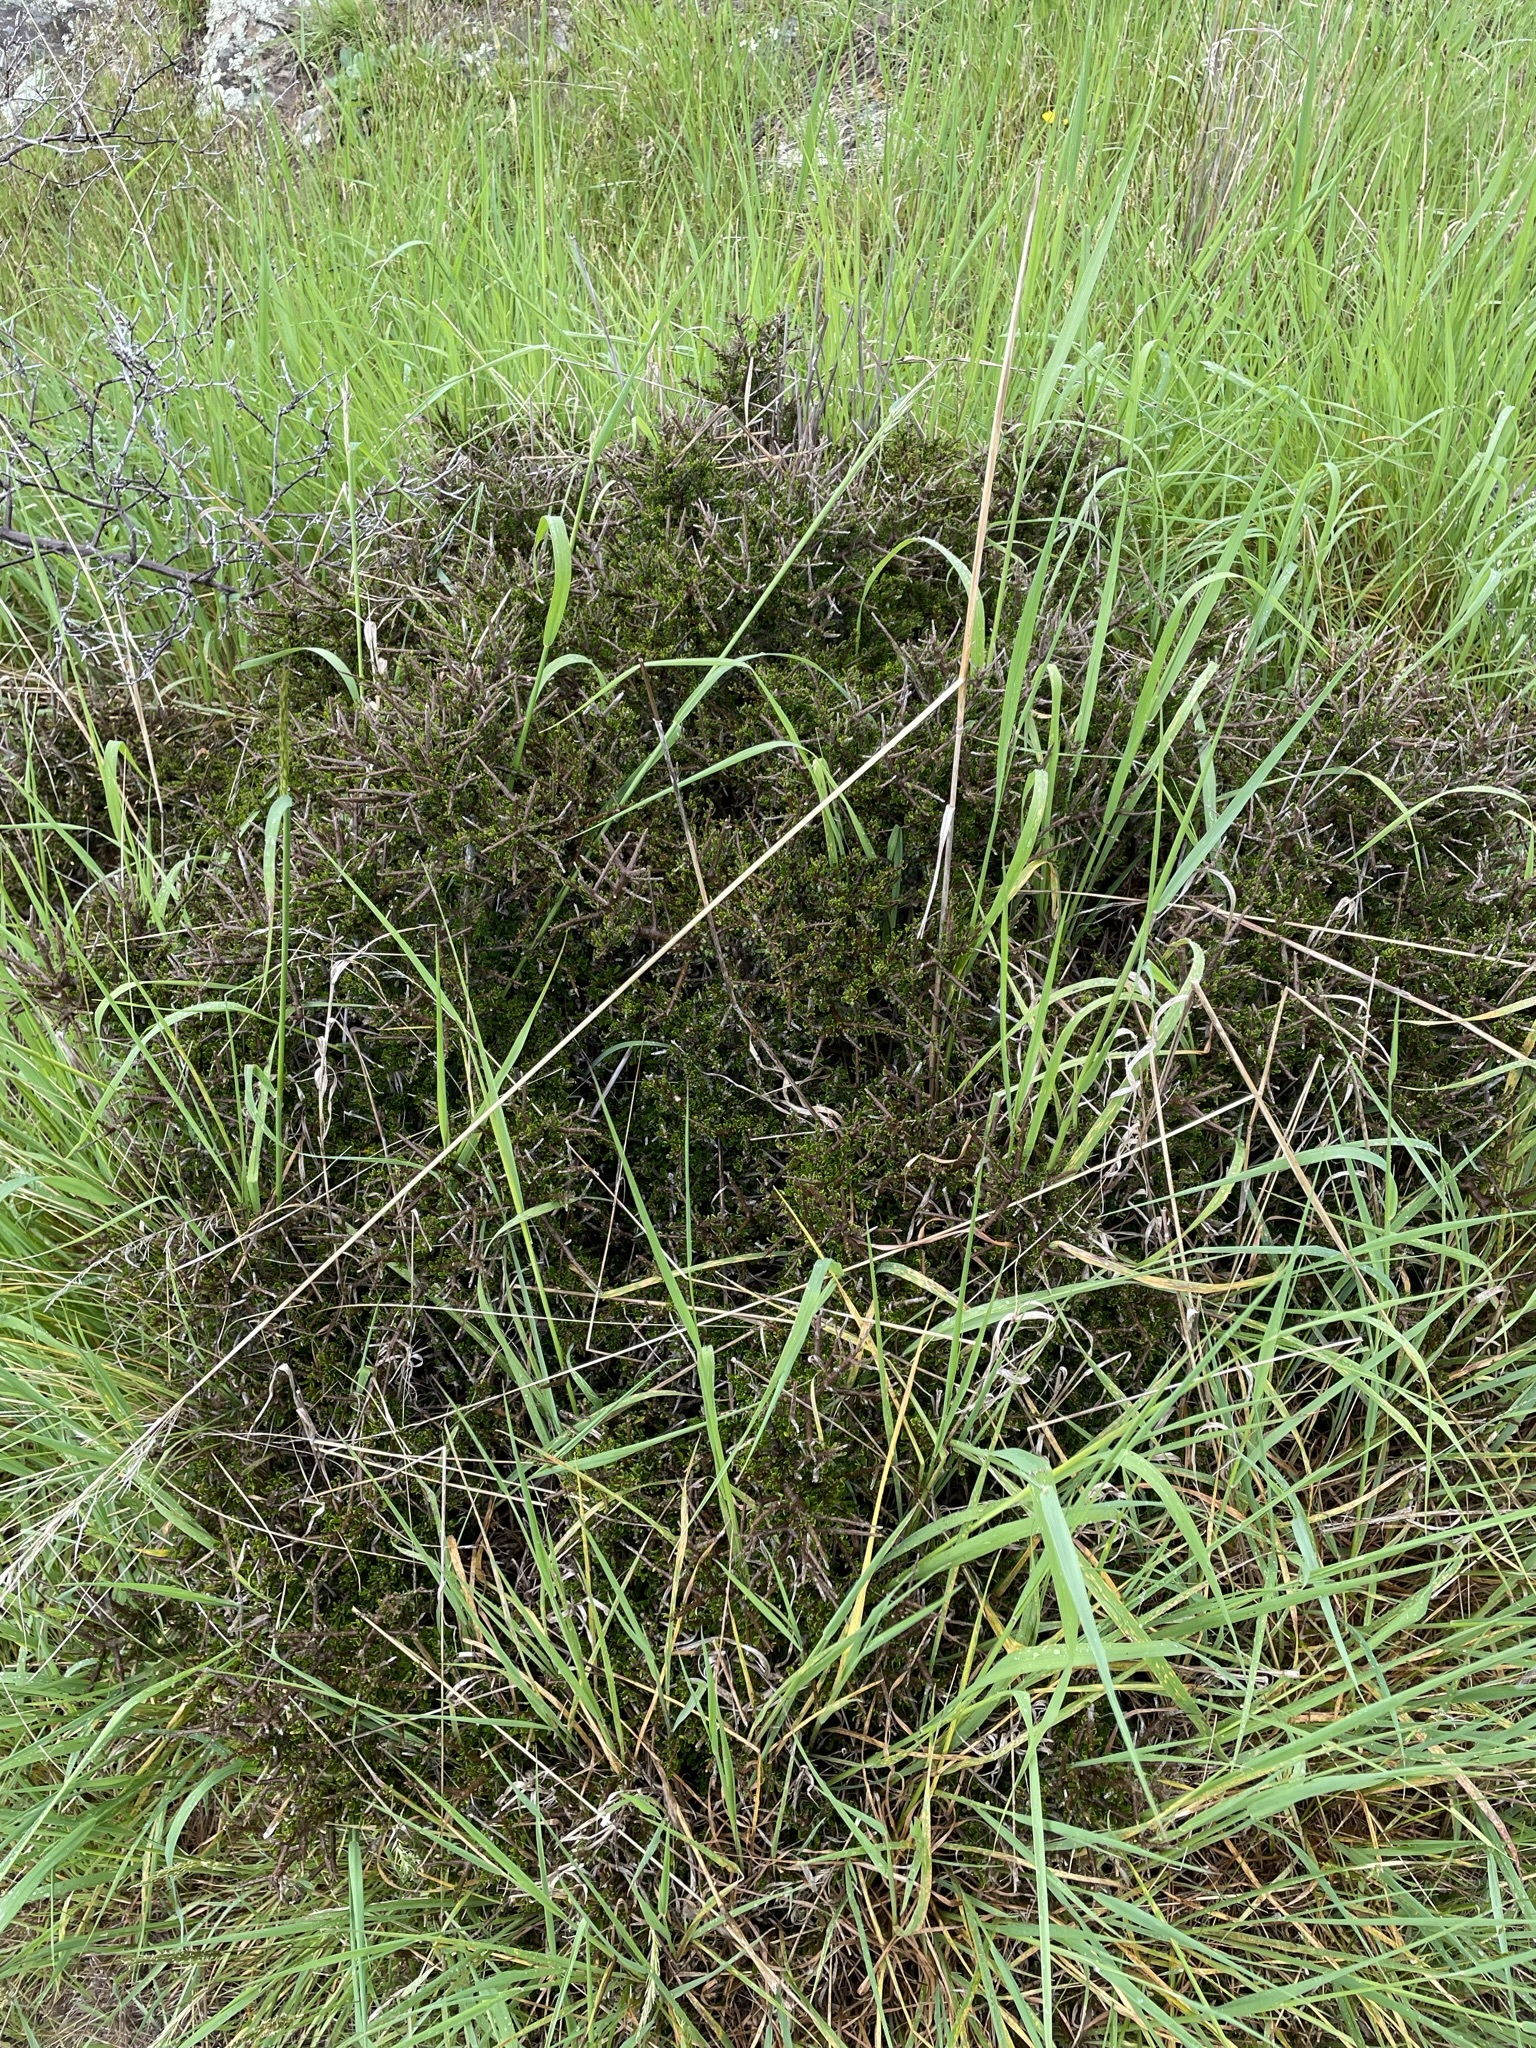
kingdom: Plantae
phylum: Tracheophyta
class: Magnoliopsida
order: Malpighiales
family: Violaceae
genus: Melicytus
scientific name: Melicytus alpinus
